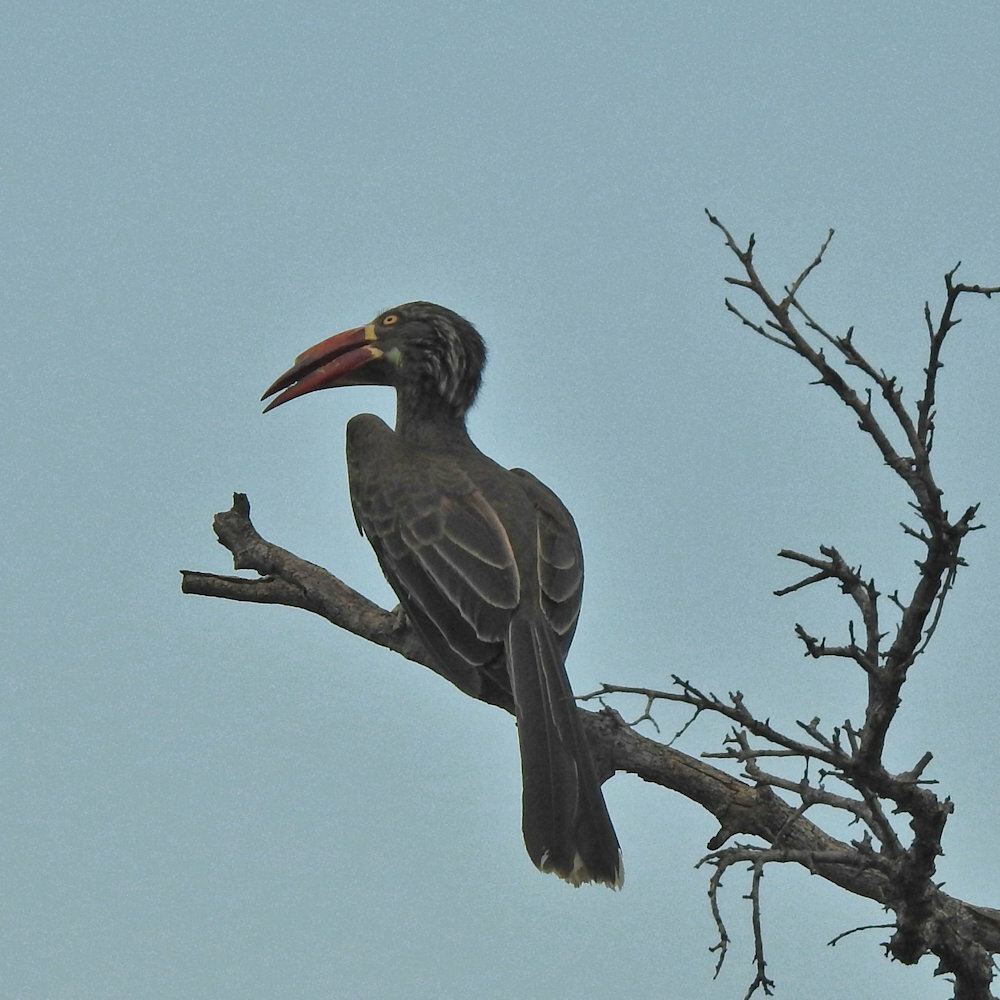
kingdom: Animalia
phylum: Chordata
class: Aves
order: Bucerotiformes
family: Bucerotidae
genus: Lophoceros
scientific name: Lophoceros alboterminatus
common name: Crowned hornbill
